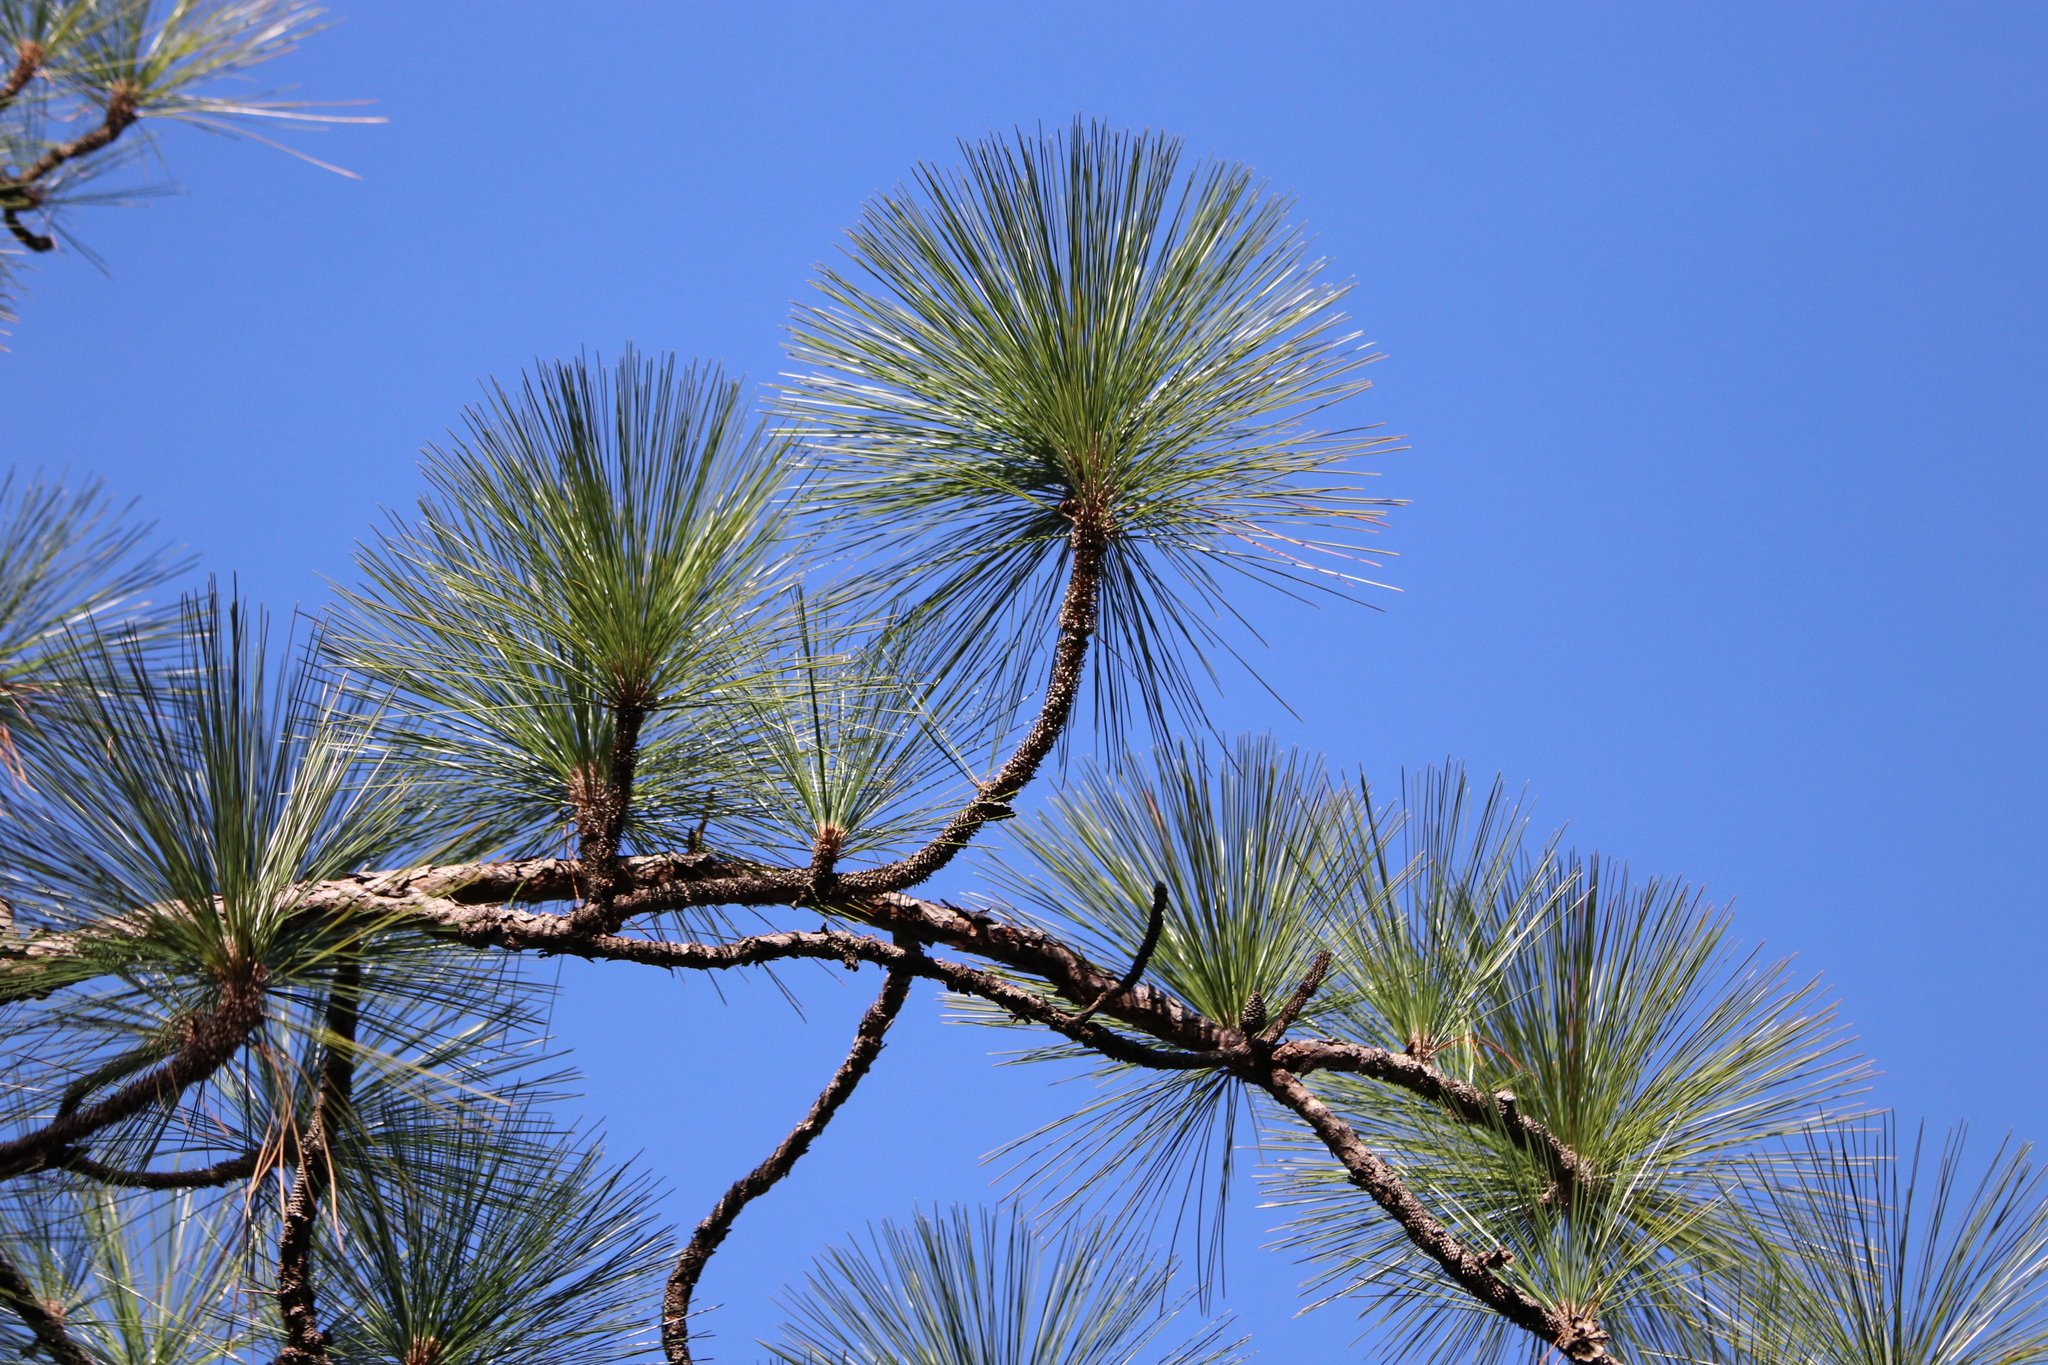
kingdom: Plantae
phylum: Tracheophyta
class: Pinopsida
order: Pinales
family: Pinaceae
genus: Pinus
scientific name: Pinus palustris
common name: Longleaf pine
